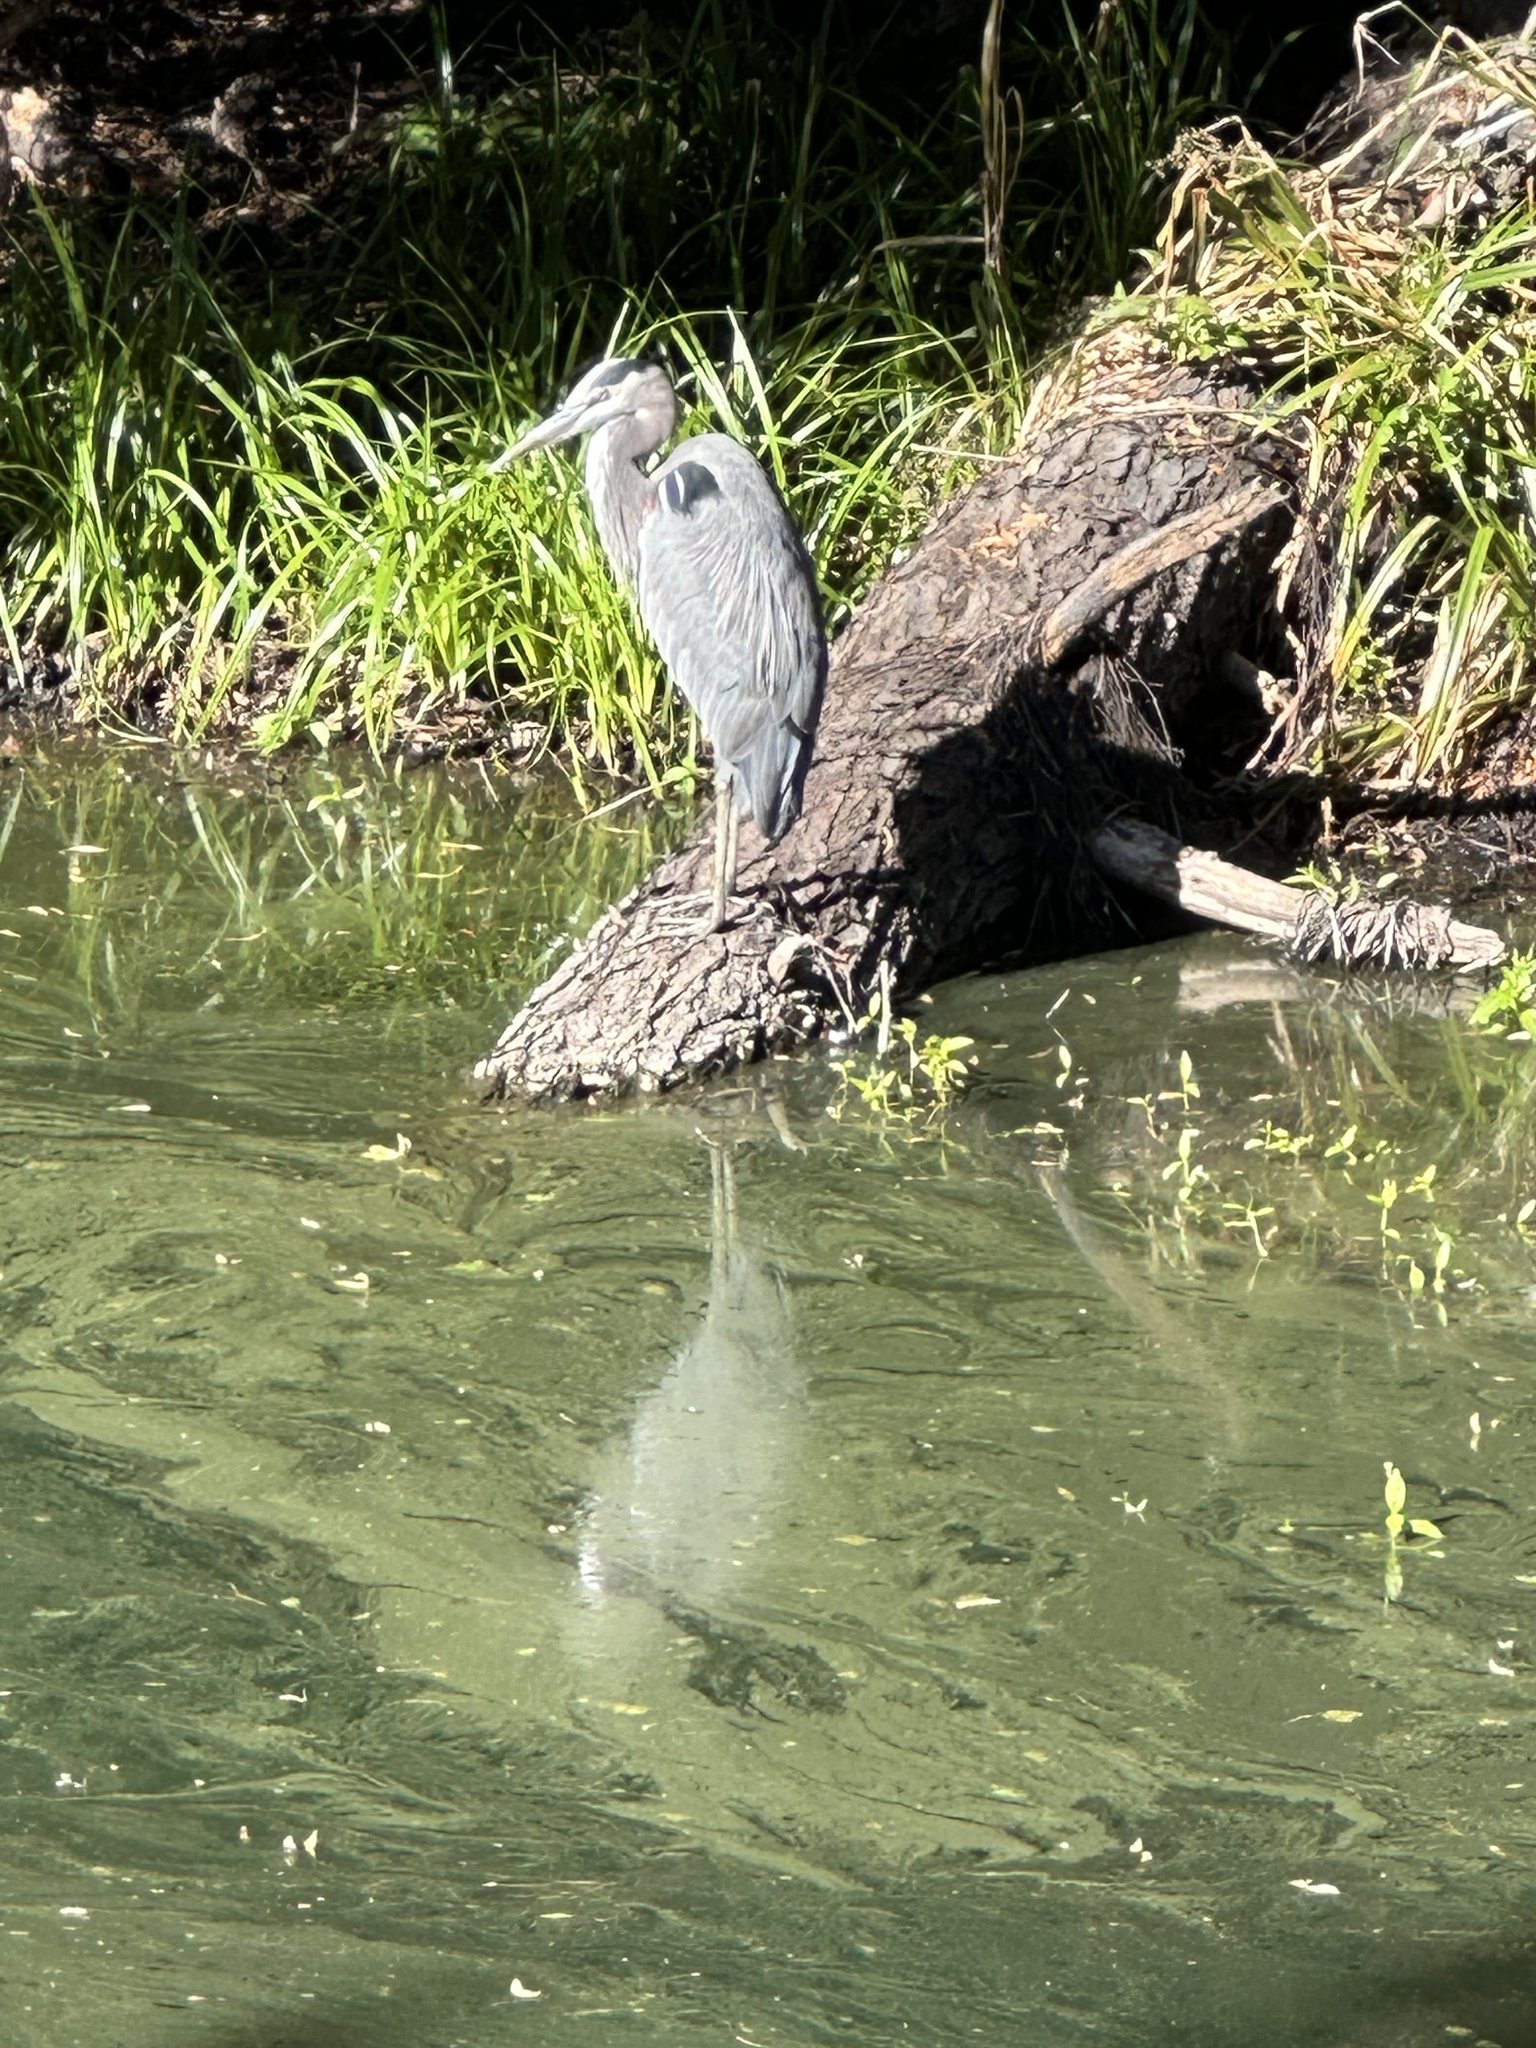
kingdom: Animalia
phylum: Chordata
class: Aves
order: Pelecaniformes
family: Ardeidae
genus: Ardea
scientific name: Ardea herodias
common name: Great blue heron
